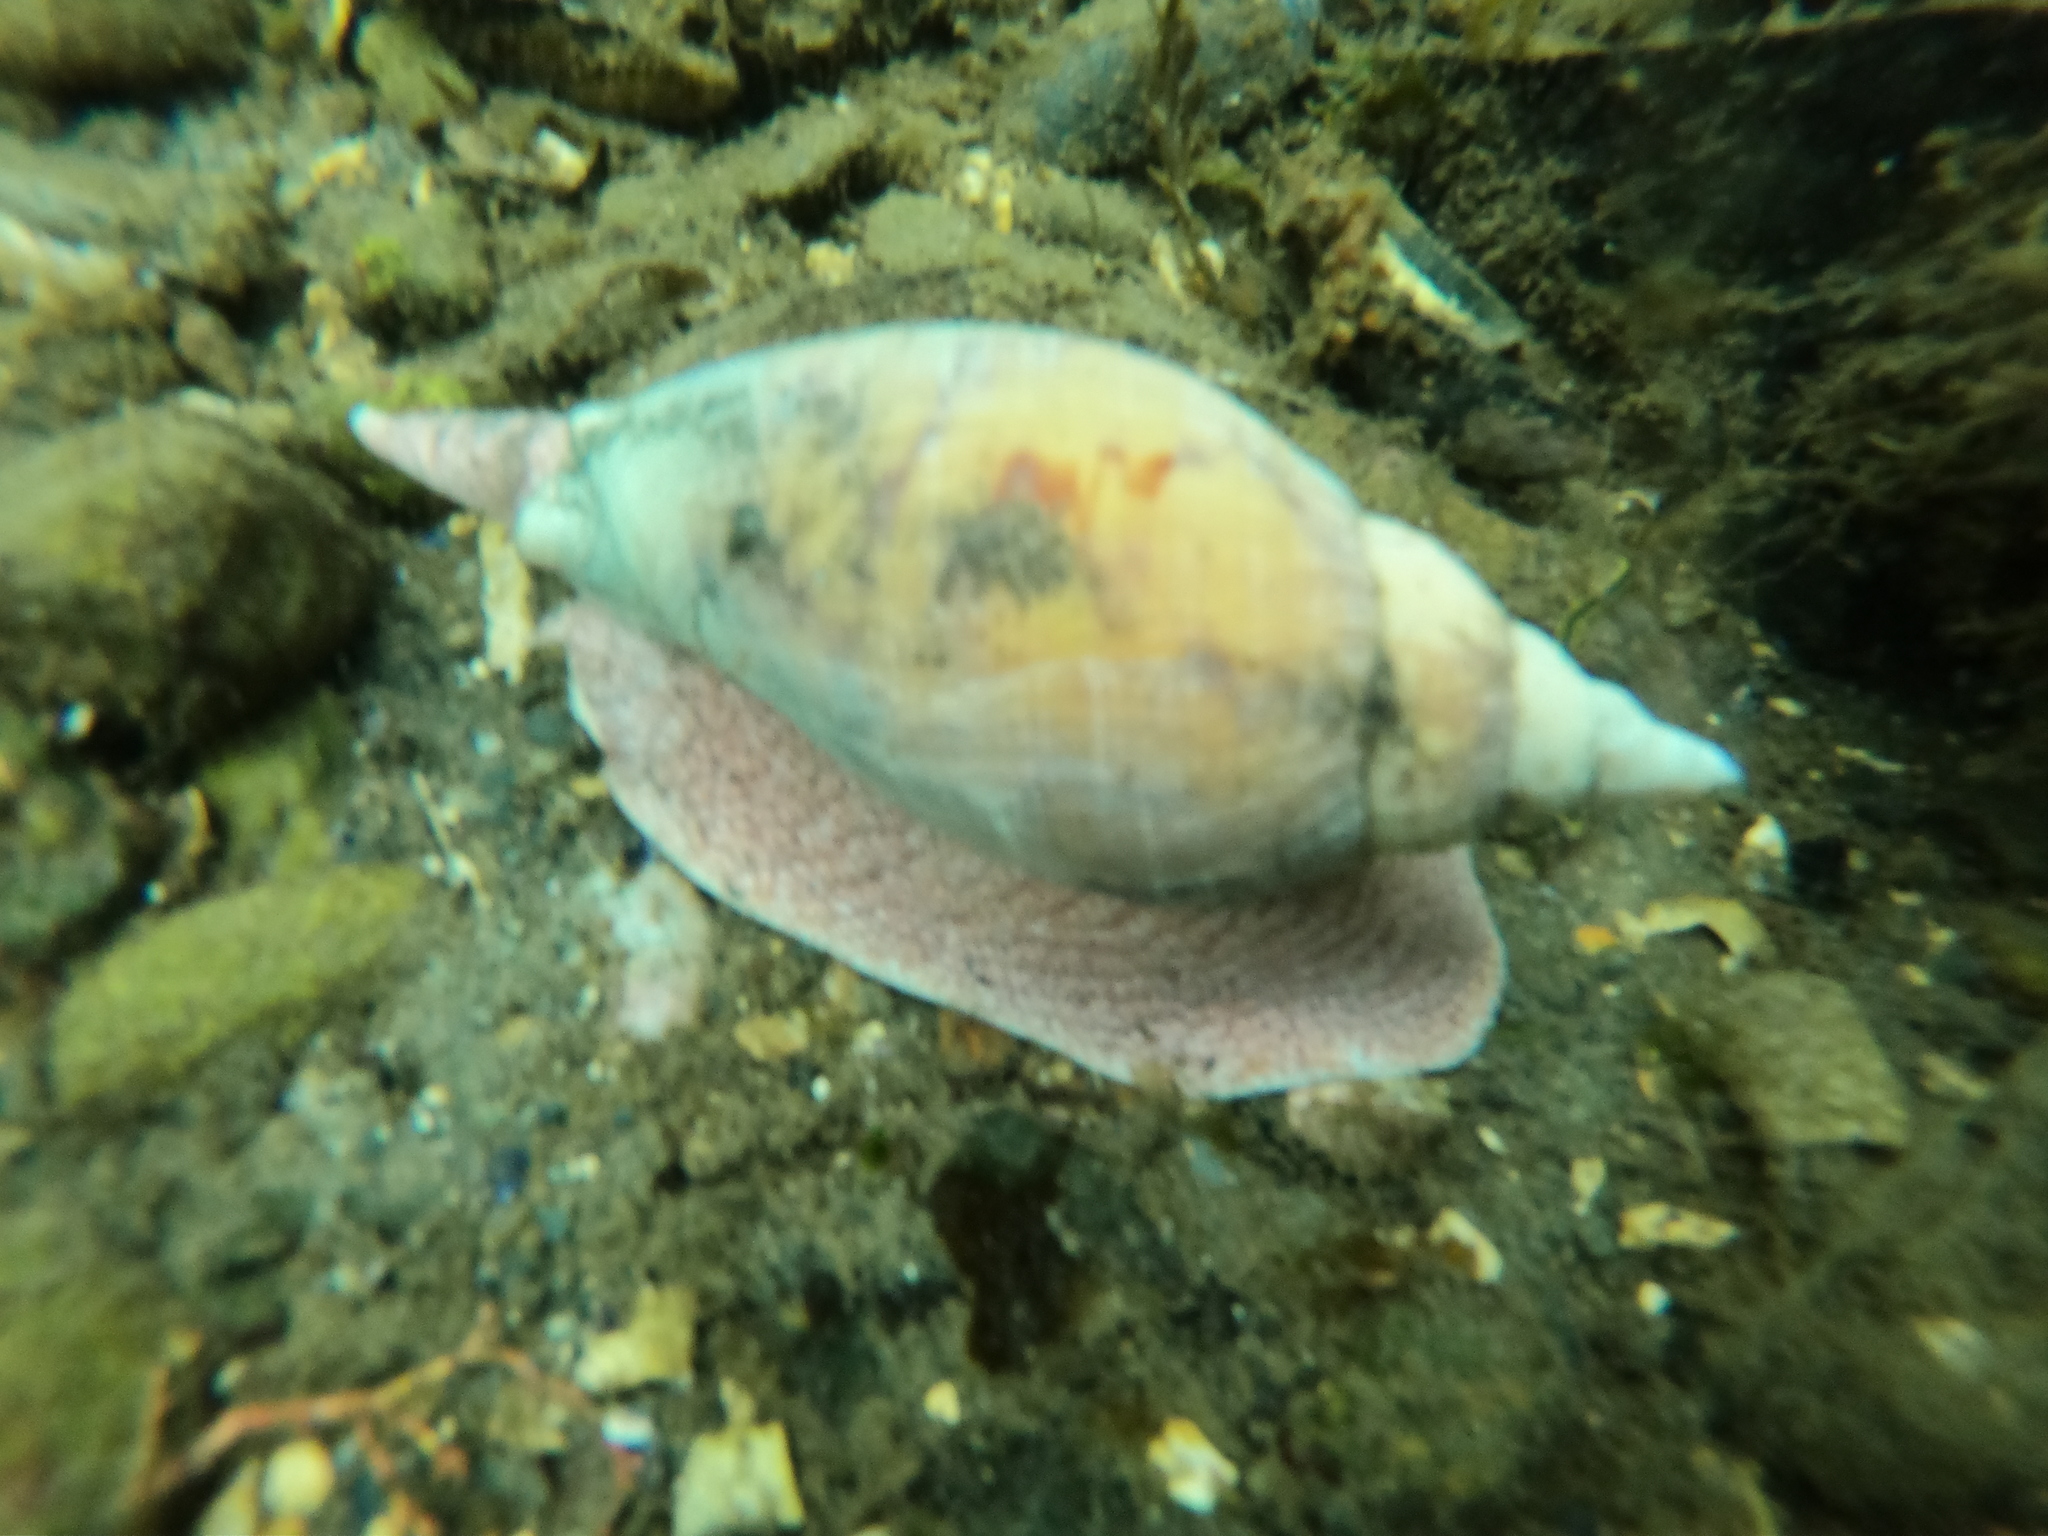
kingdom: Animalia
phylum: Mollusca
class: Gastropoda
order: Neogastropoda
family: Volutidae
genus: Odontocymbiola
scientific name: Odontocymbiola magellanica
